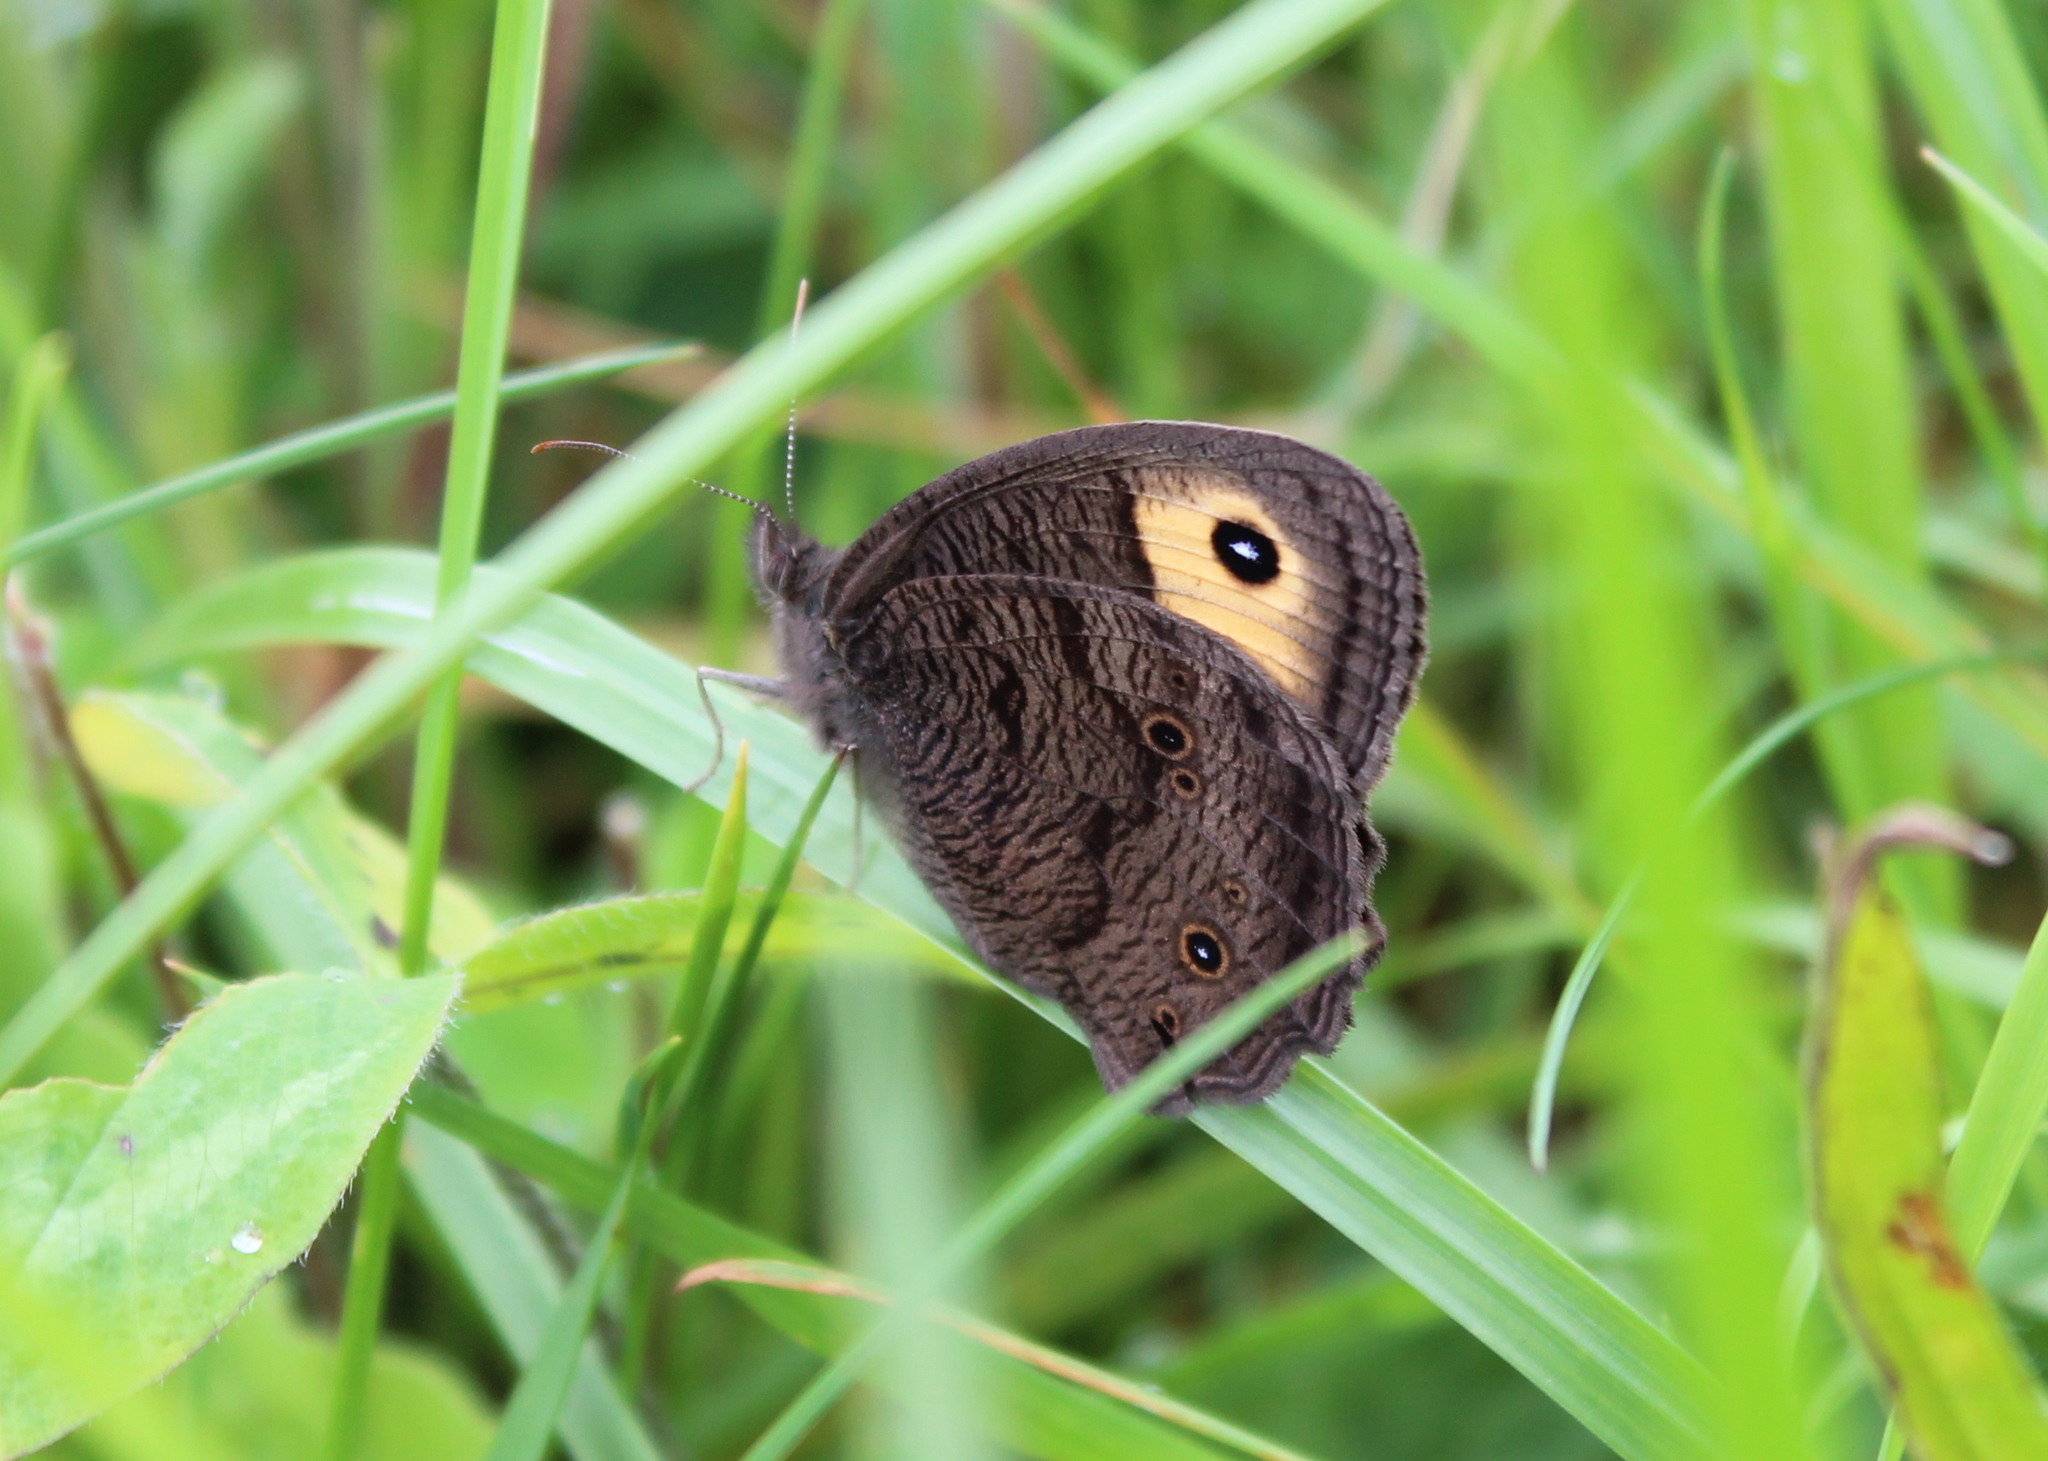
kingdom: Animalia
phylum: Arthropoda
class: Insecta
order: Lepidoptera
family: Nymphalidae
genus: Cercyonis
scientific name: Cercyonis pegala
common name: Common wood-nymph
